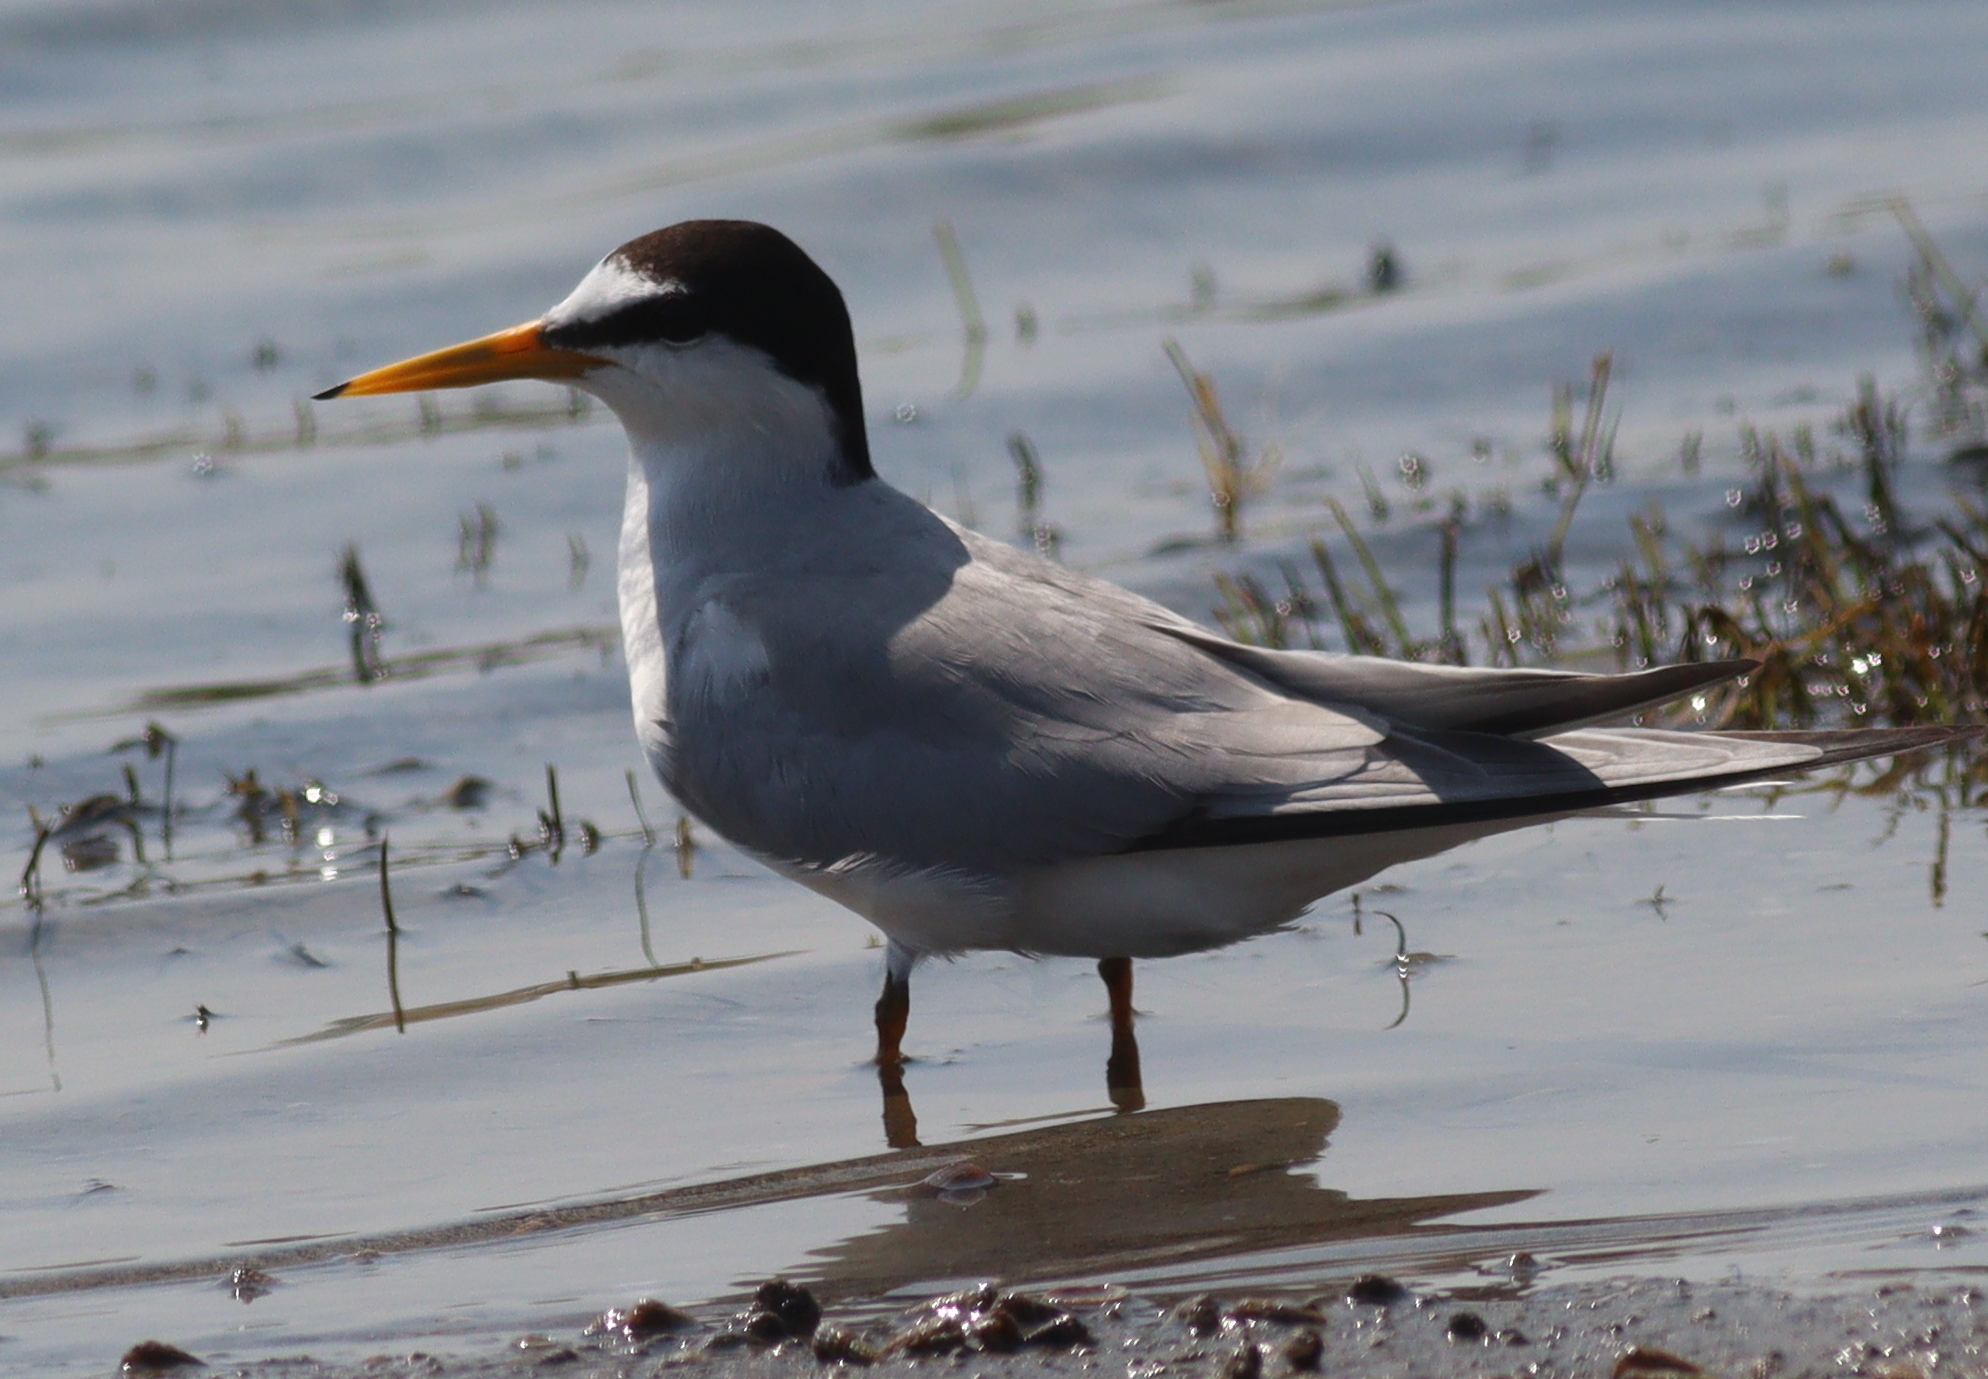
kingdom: Animalia
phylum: Chordata
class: Aves
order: Charadriiformes
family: Laridae
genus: Sternula
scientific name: Sternula albifrons
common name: Little tern
